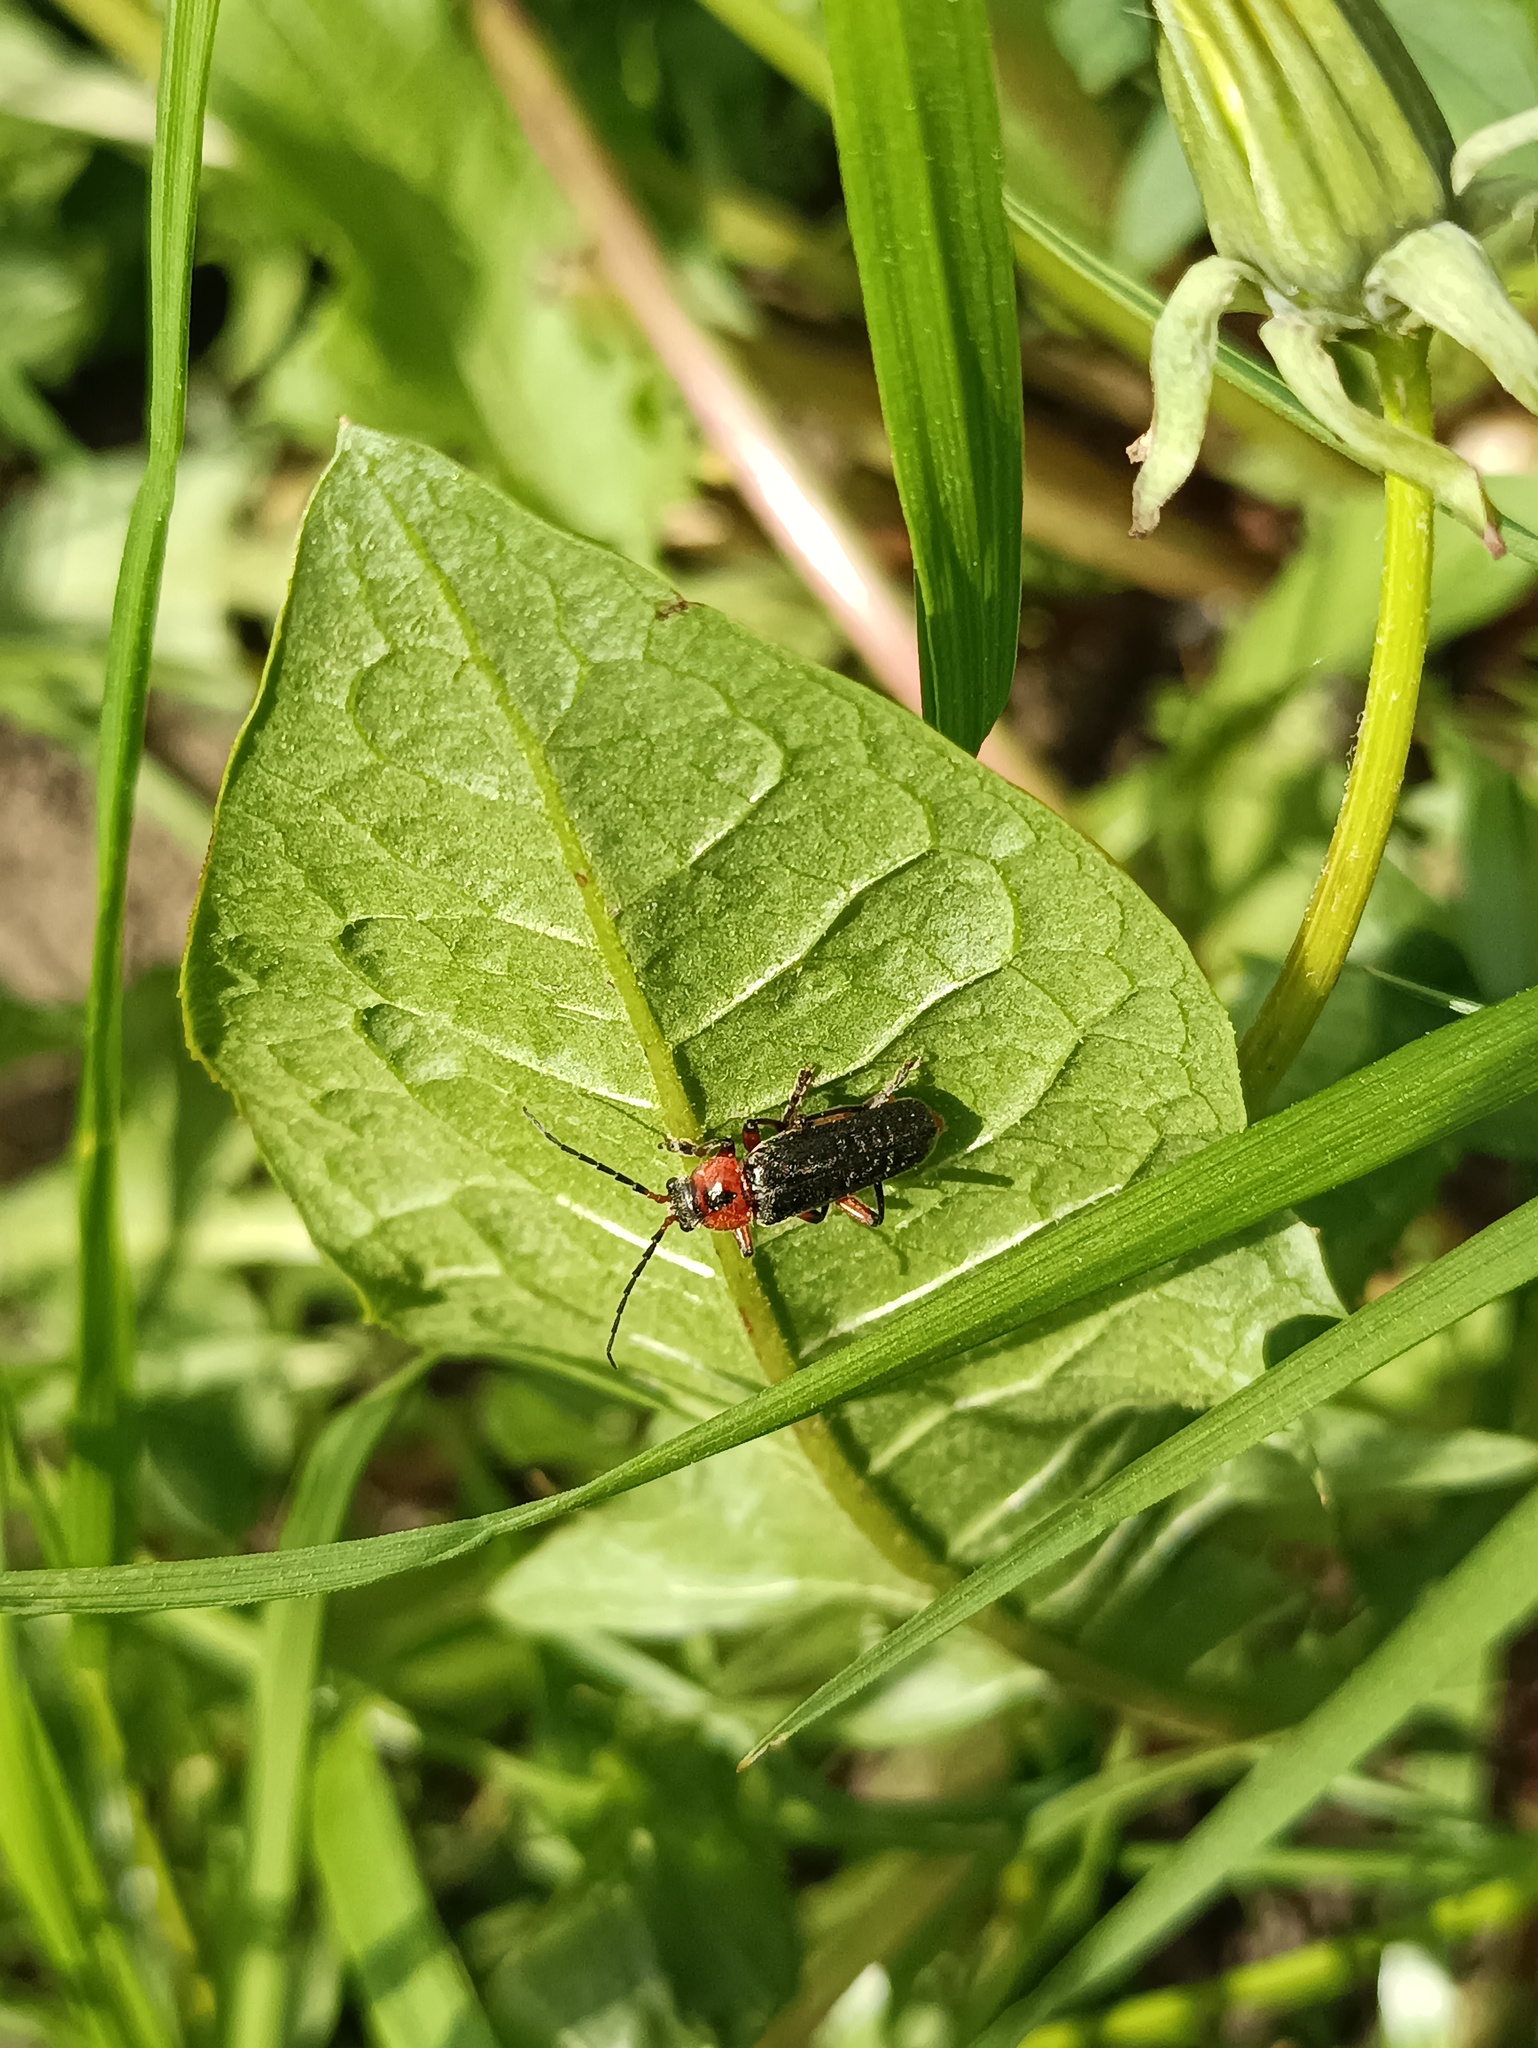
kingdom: Animalia
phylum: Arthropoda
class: Insecta
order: Coleoptera
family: Cantharidae
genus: Cantharis
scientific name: Cantharis rustica
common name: Soldier beetle
